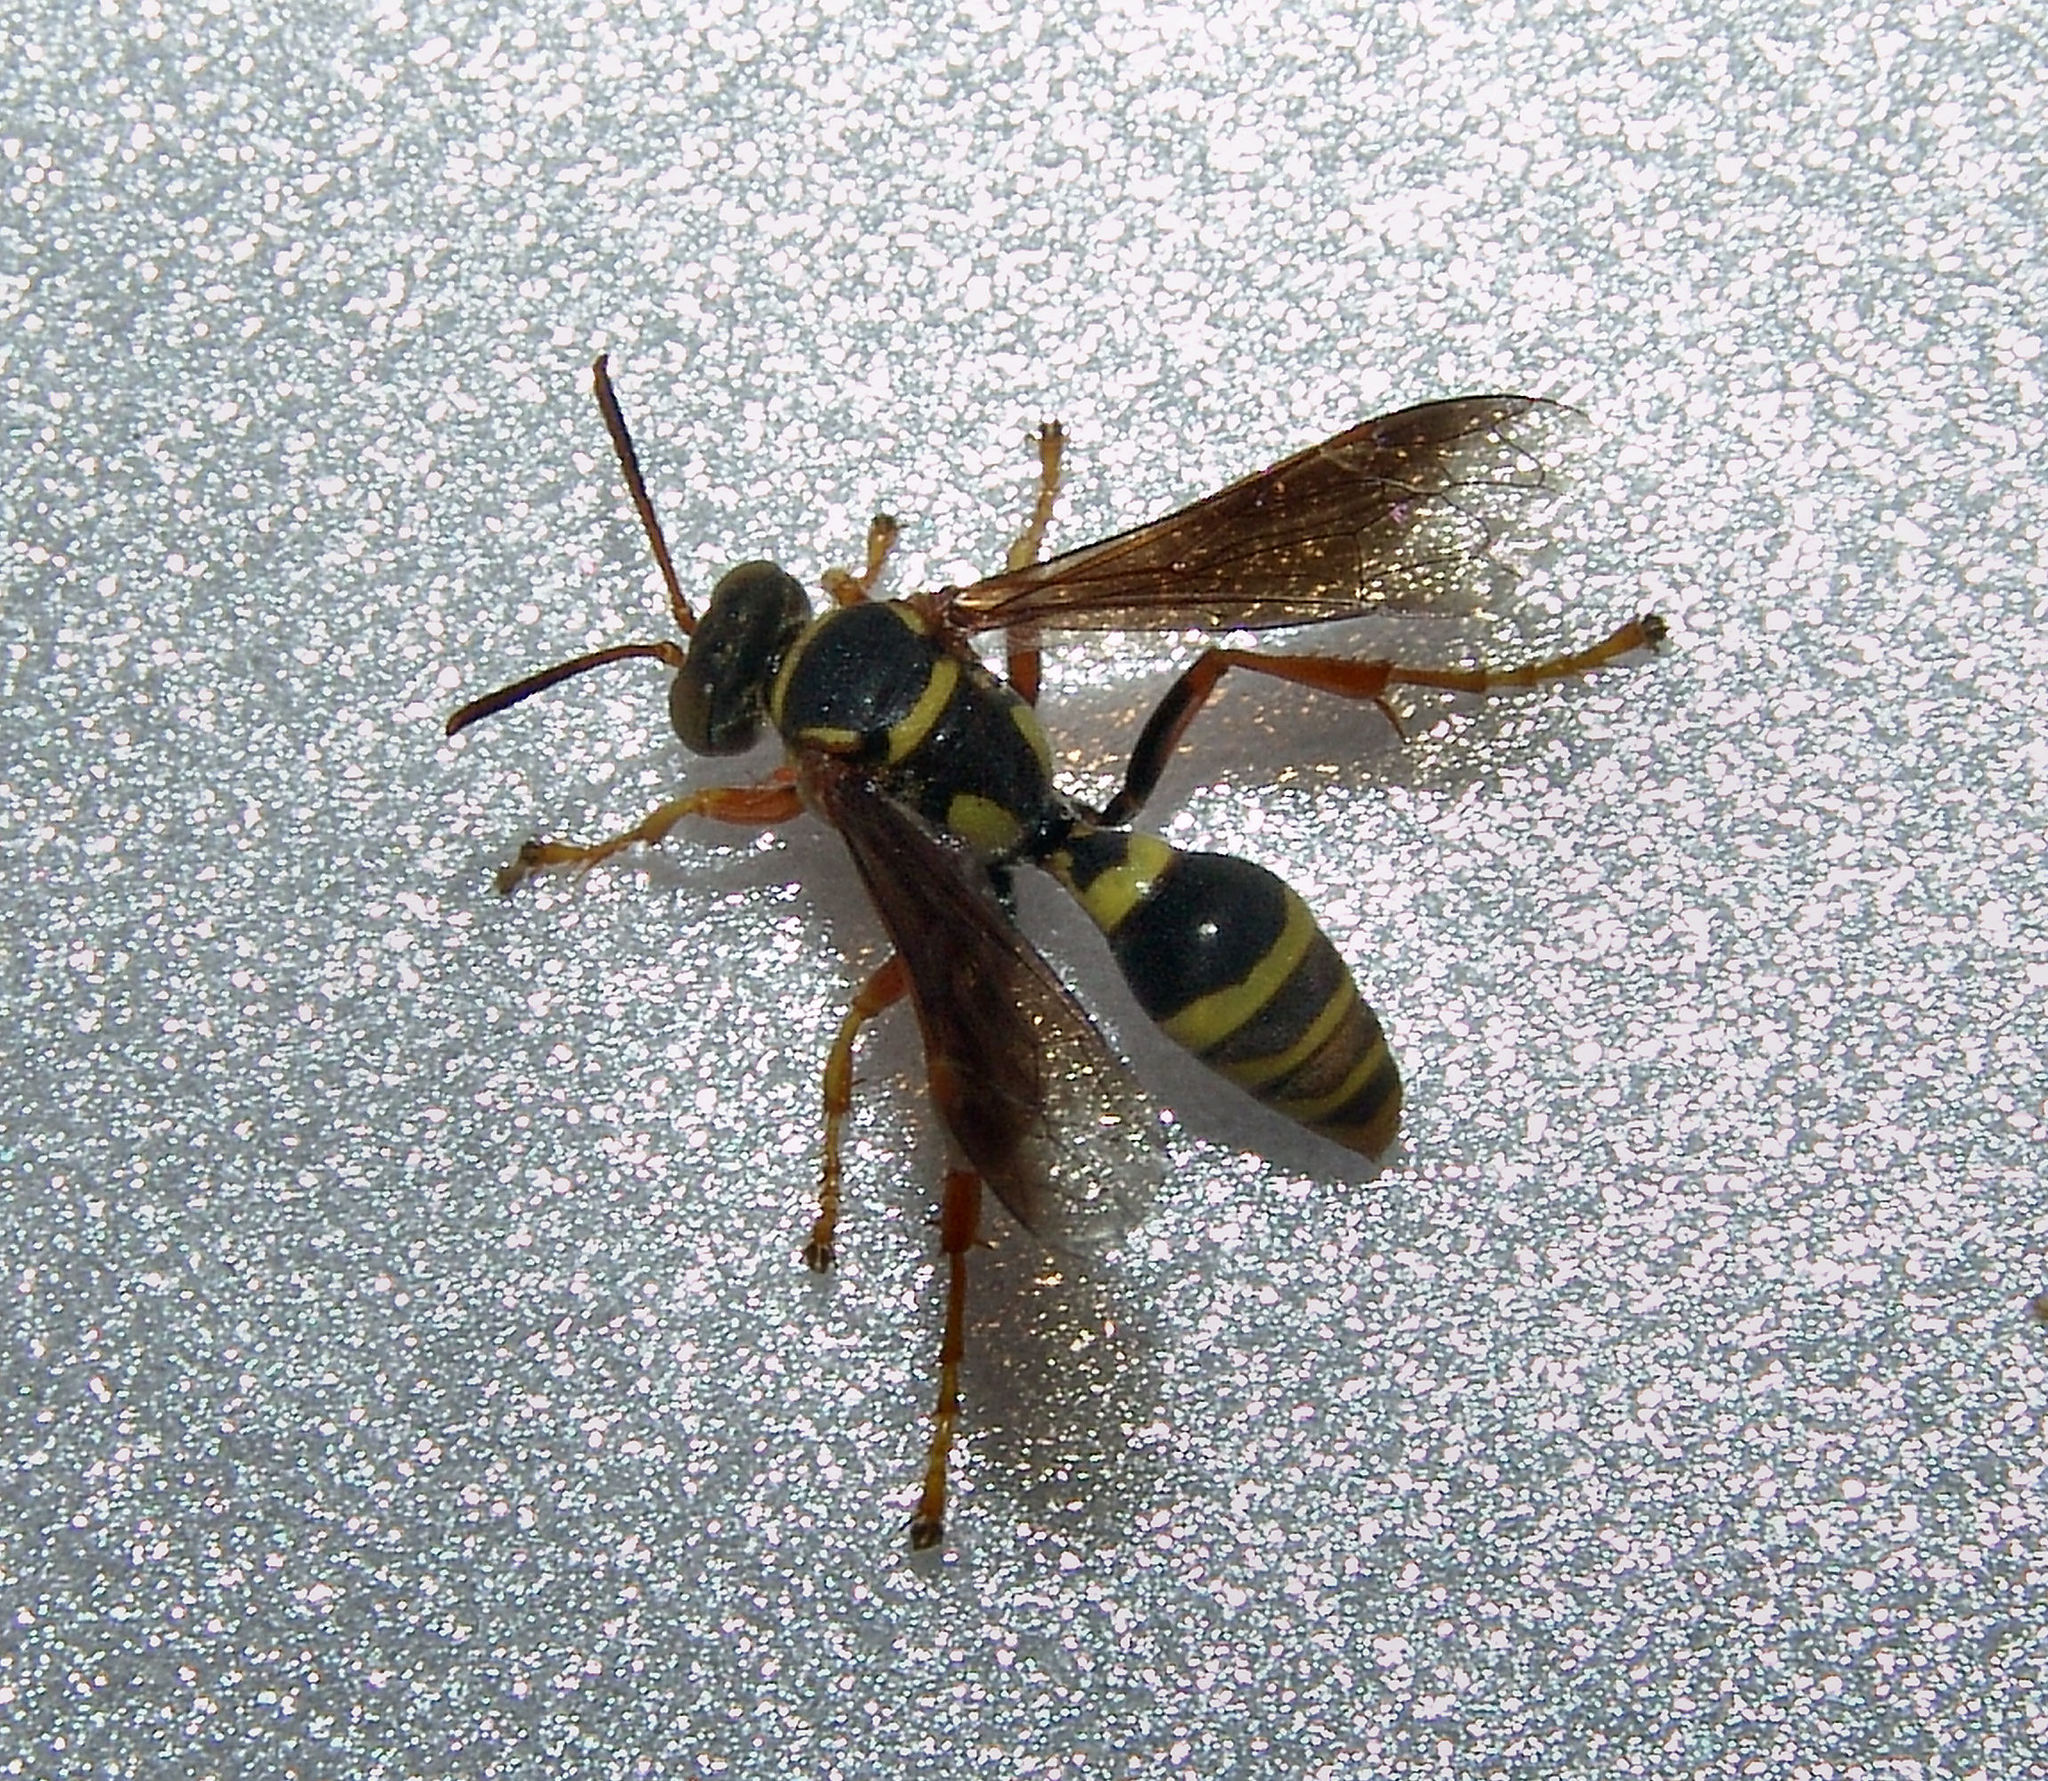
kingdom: Animalia
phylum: Arthropoda
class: Insecta
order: Hymenoptera
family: Crabronidae
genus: Saygorytes
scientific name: Saygorytes phaleratus
